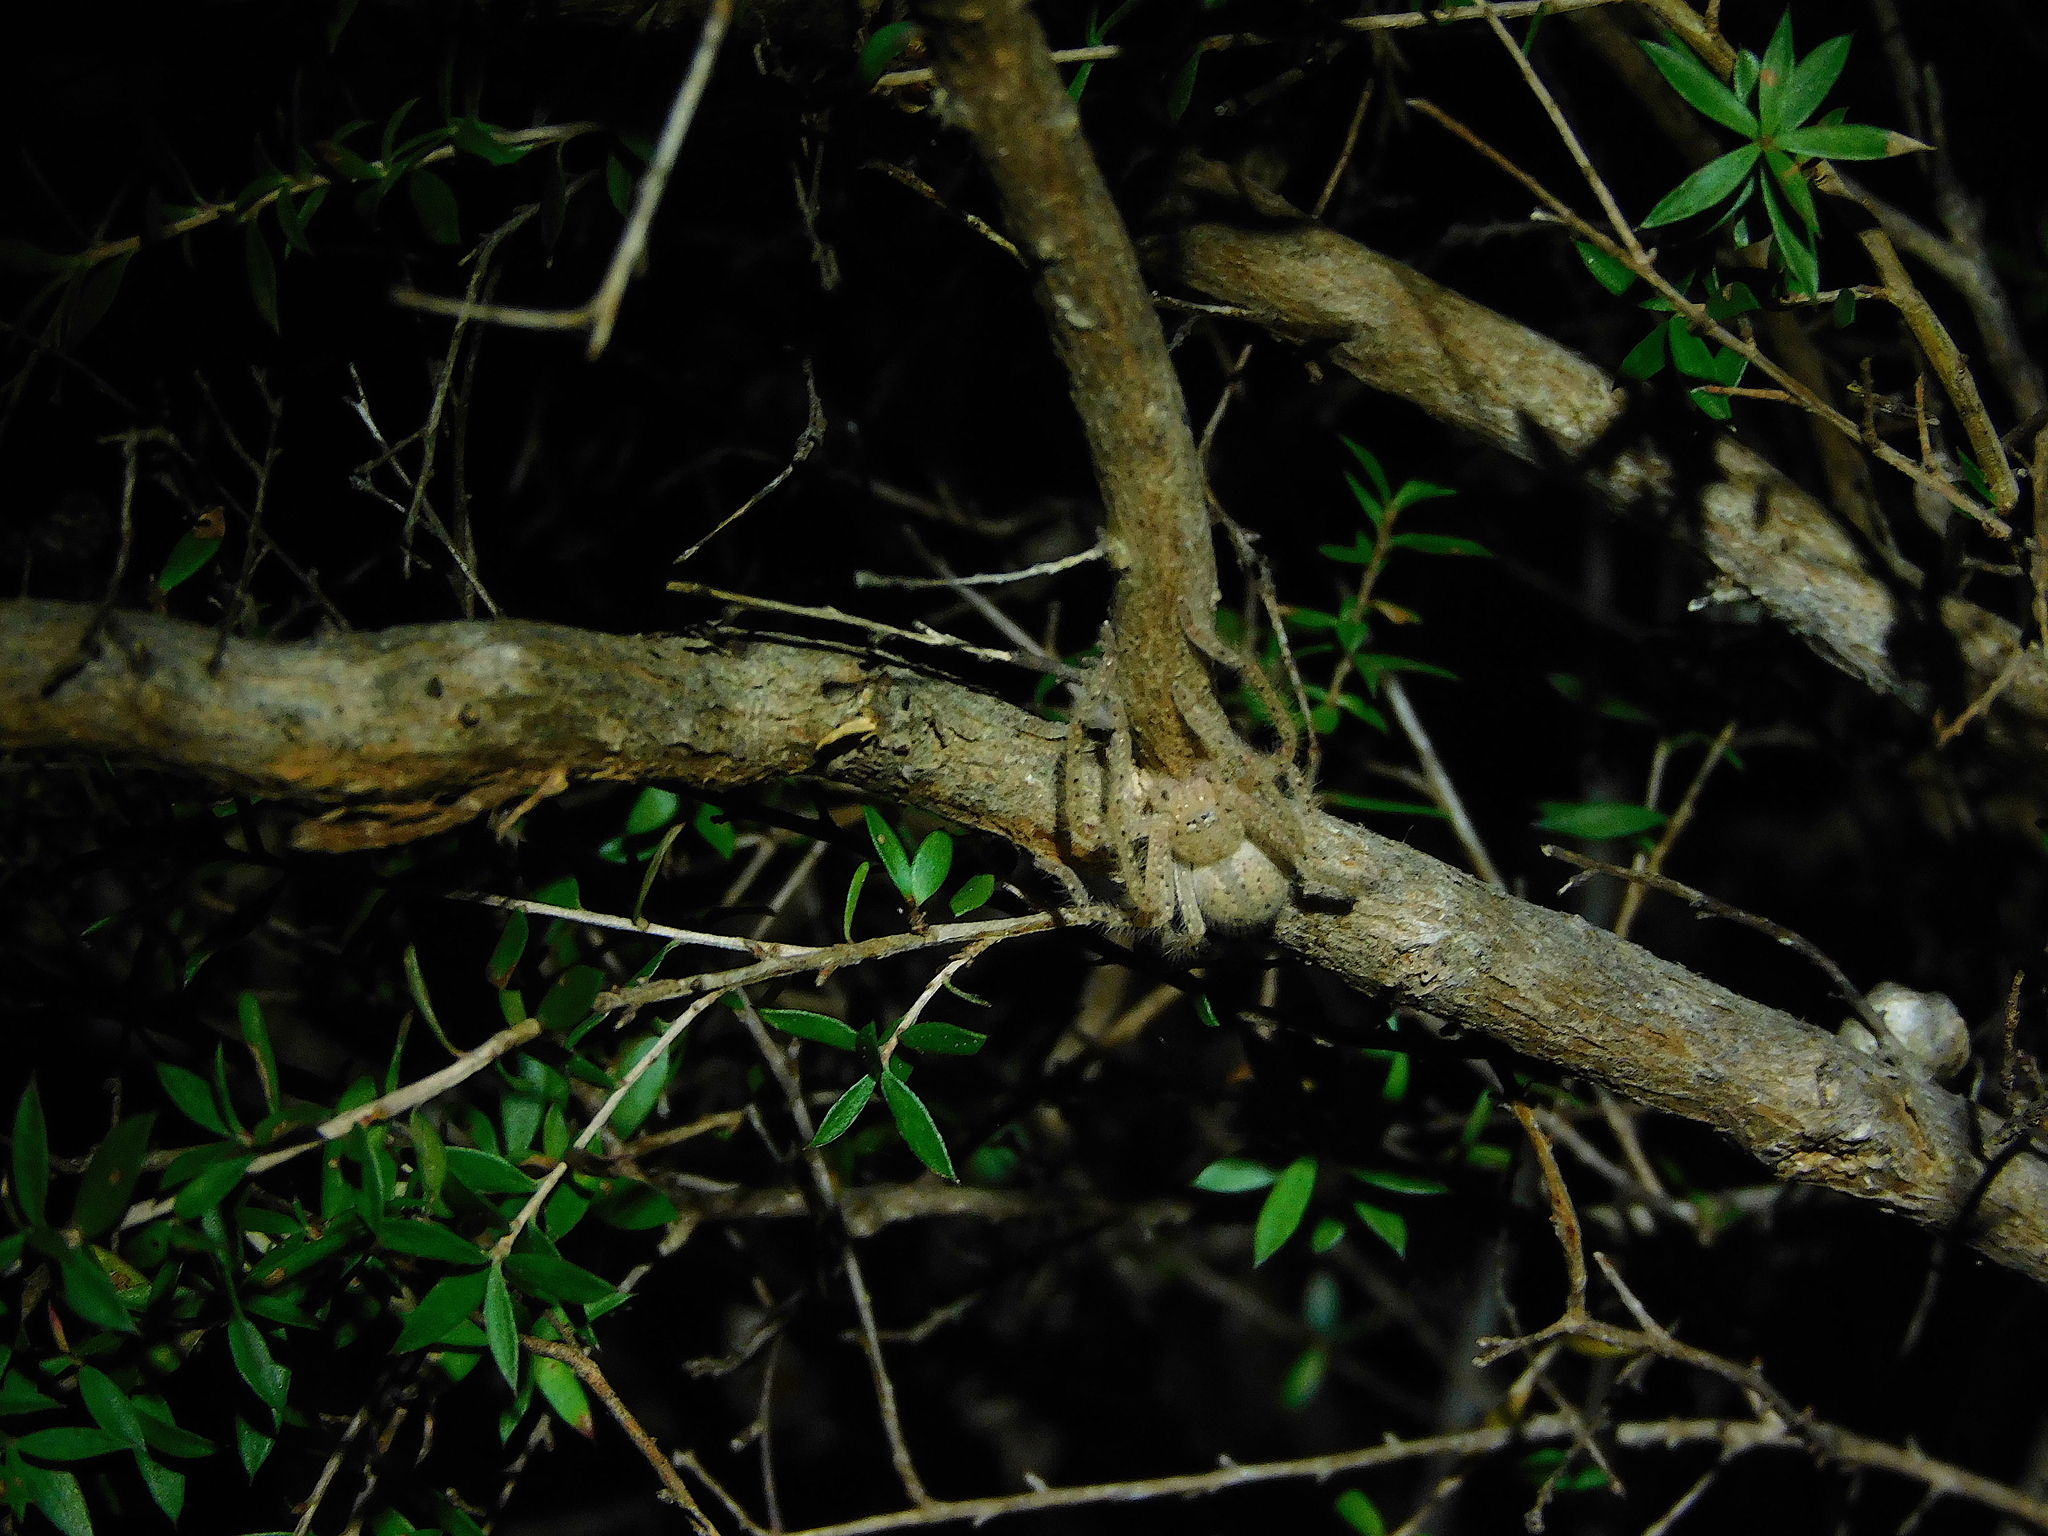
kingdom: Animalia
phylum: Arthropoda
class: Arachnida
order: Araneae
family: Sparassidae
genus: Neosparassus
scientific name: Neosparassus diana
